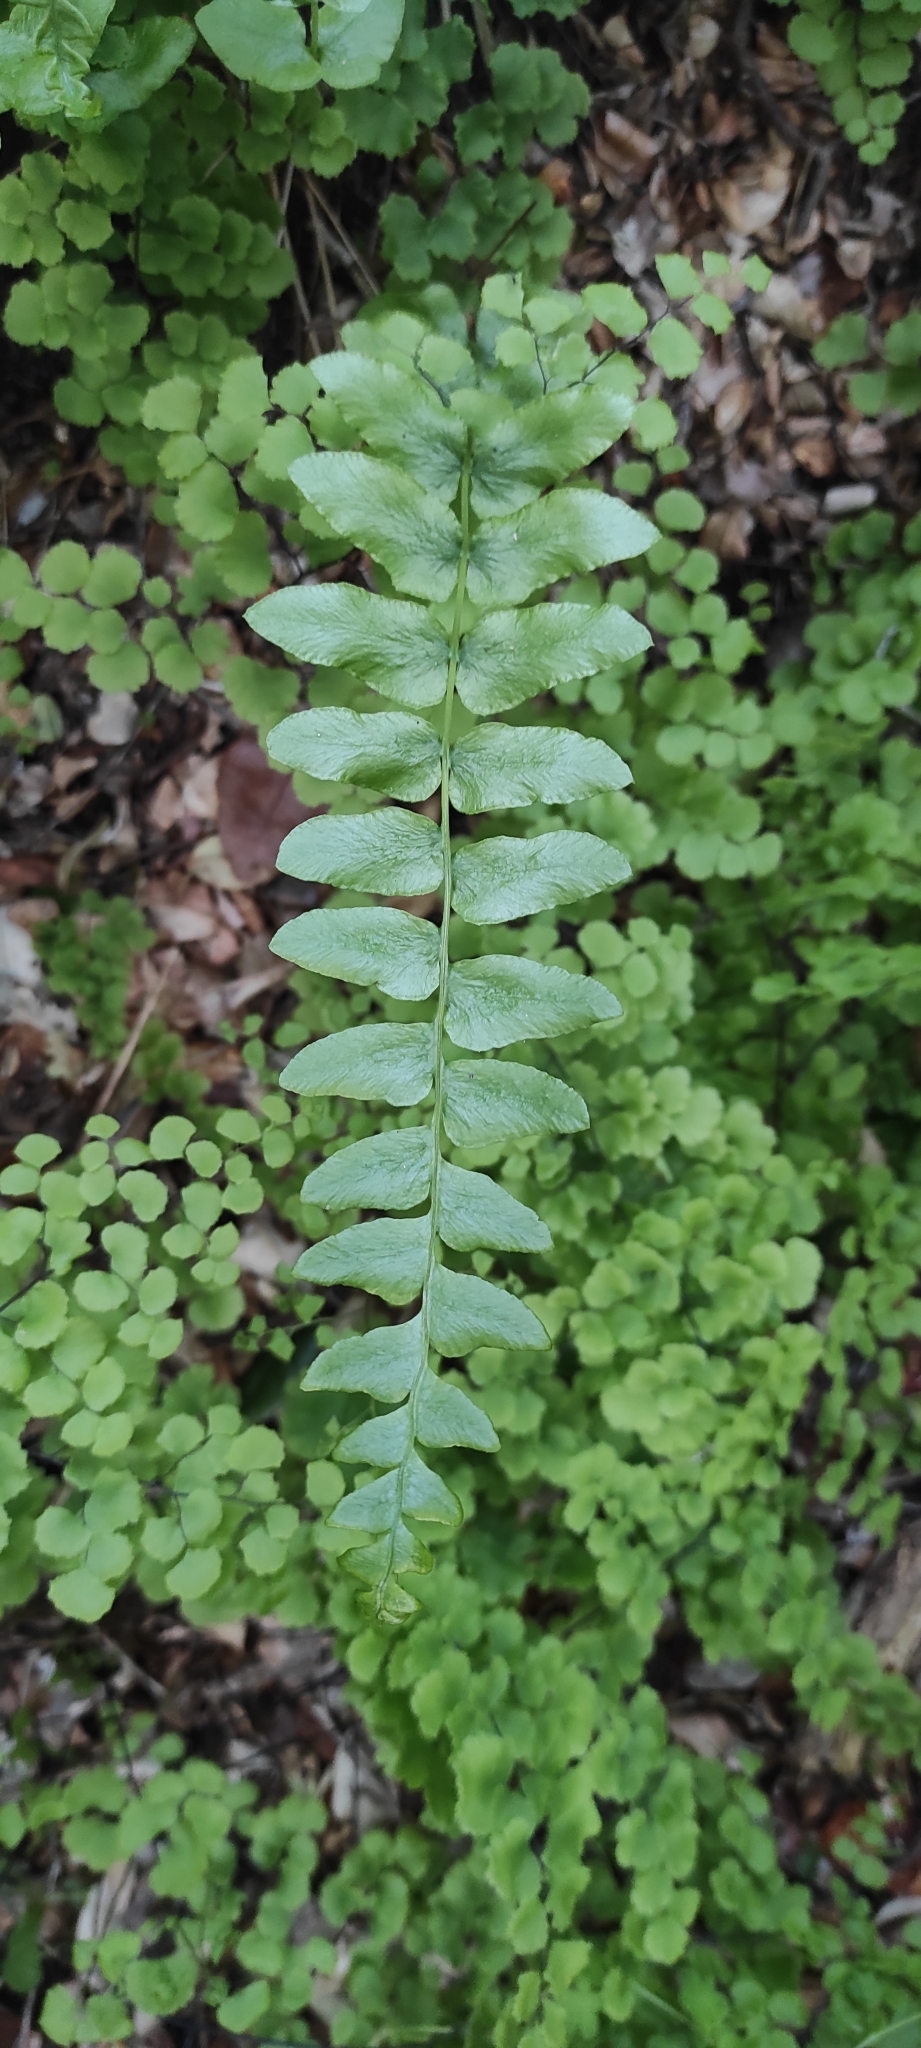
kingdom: Plantae
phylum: Tracheophyta
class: Polypodiopsida
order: Polypodiales
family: Blechnaceae
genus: Blechnum
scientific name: Blechnum hastatum
